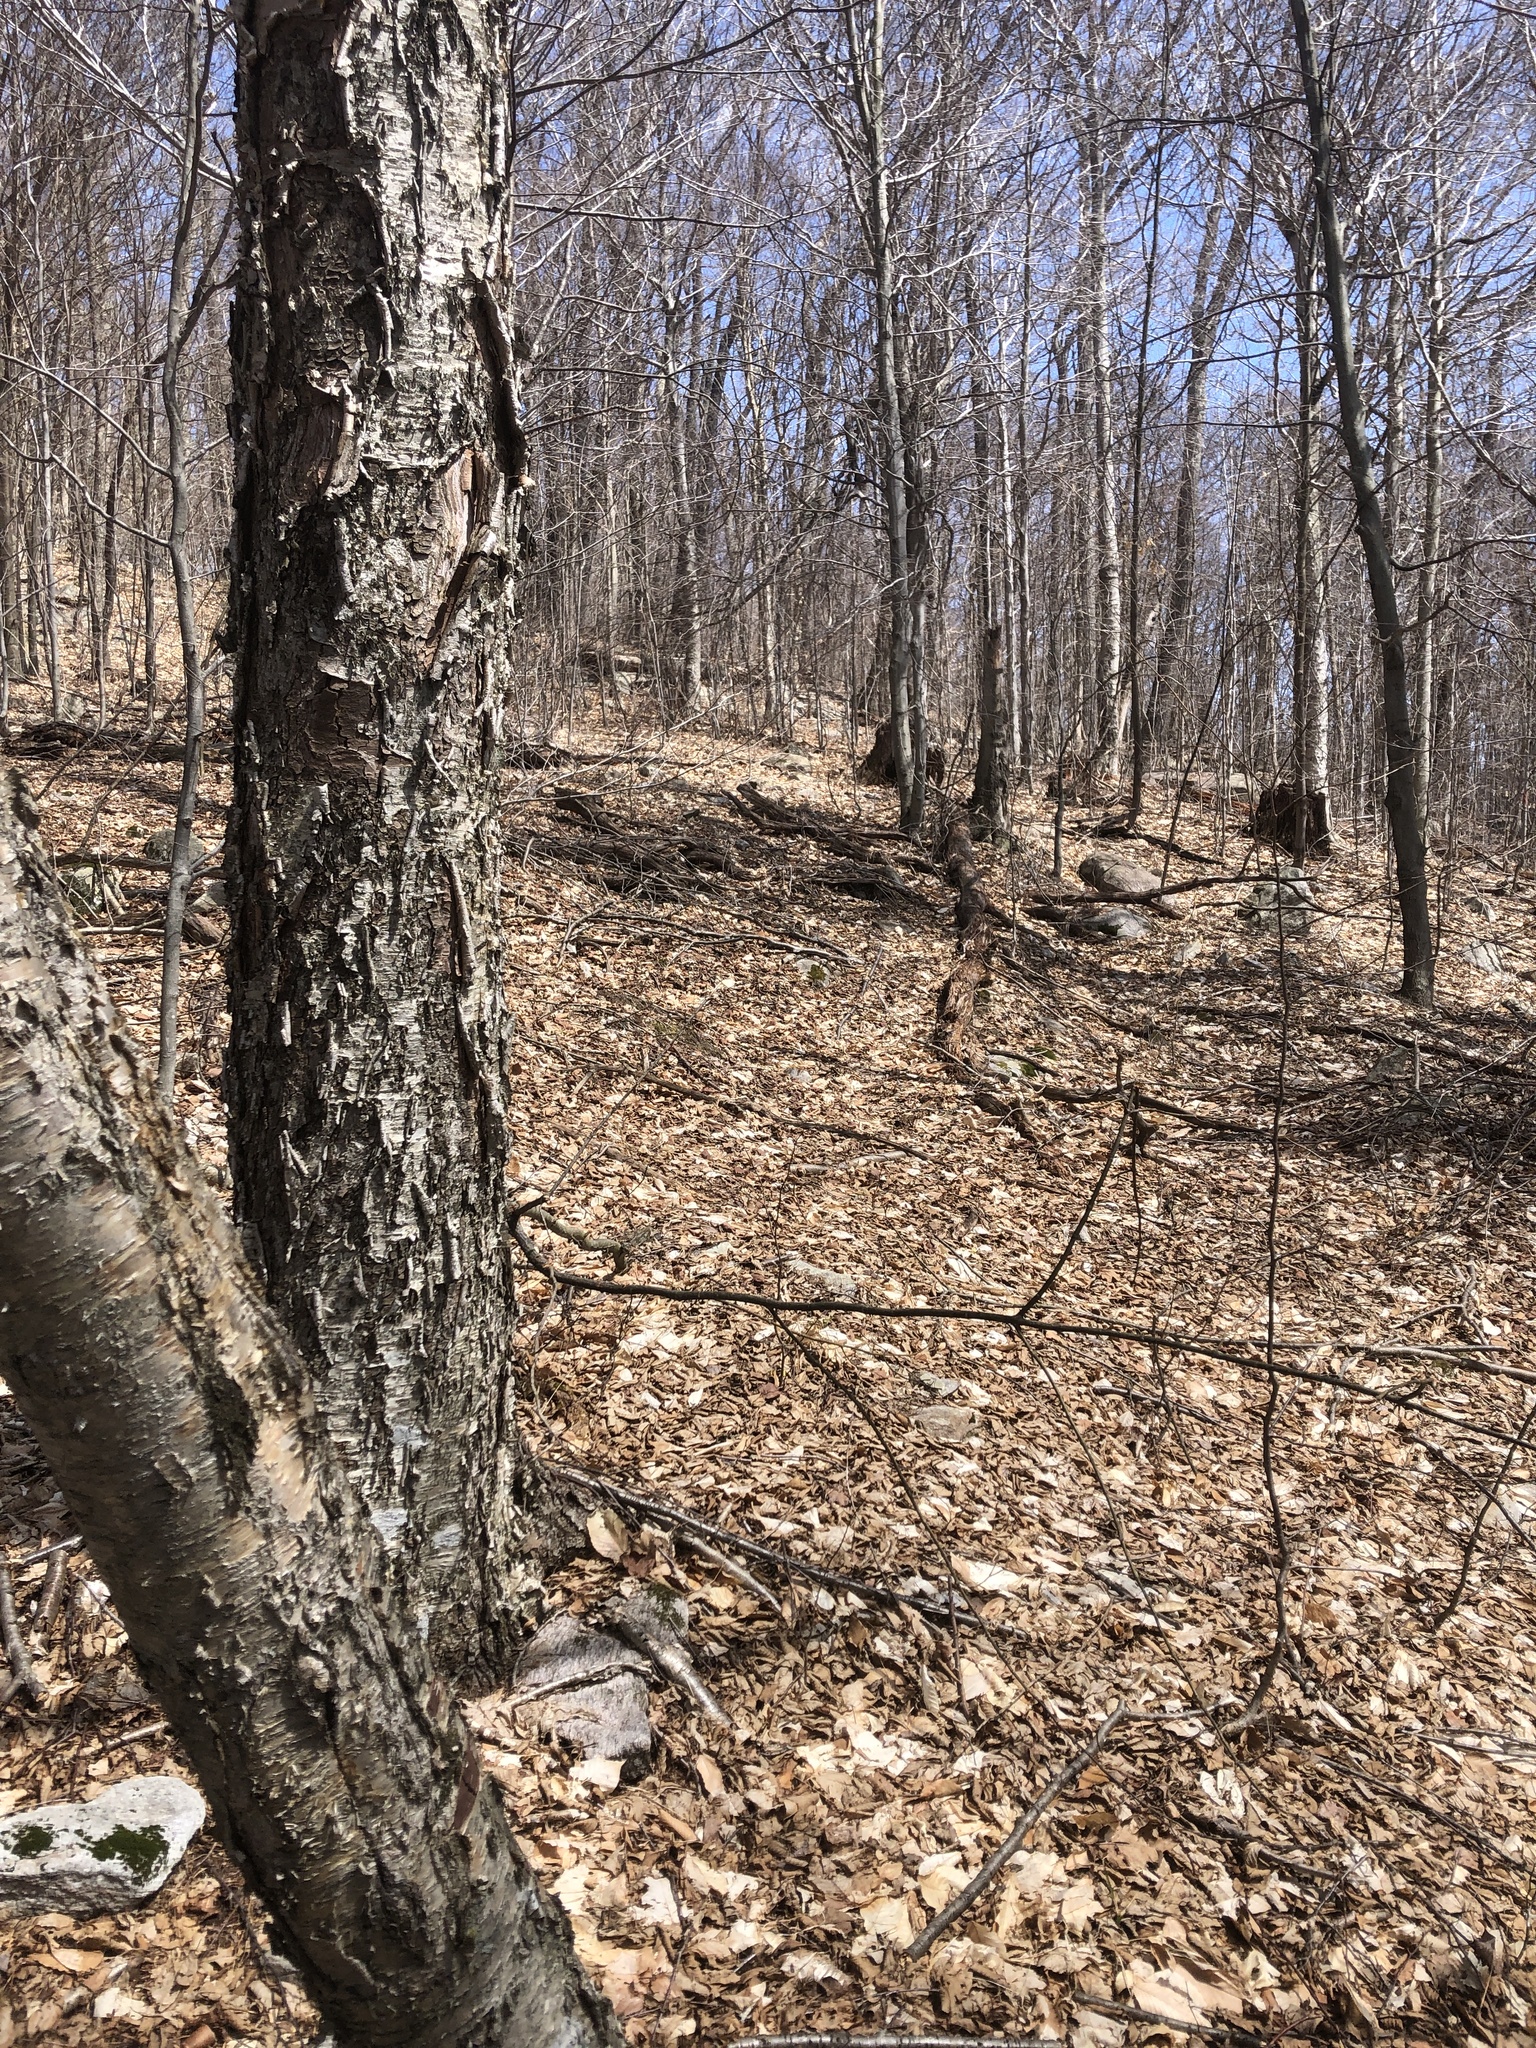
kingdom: Plantae
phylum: Tracheophyta
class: Liliopsida
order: Liliales
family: Liliaceae
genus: Erythronium
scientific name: Erythronium americanum
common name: Yellow adder's-tongue
